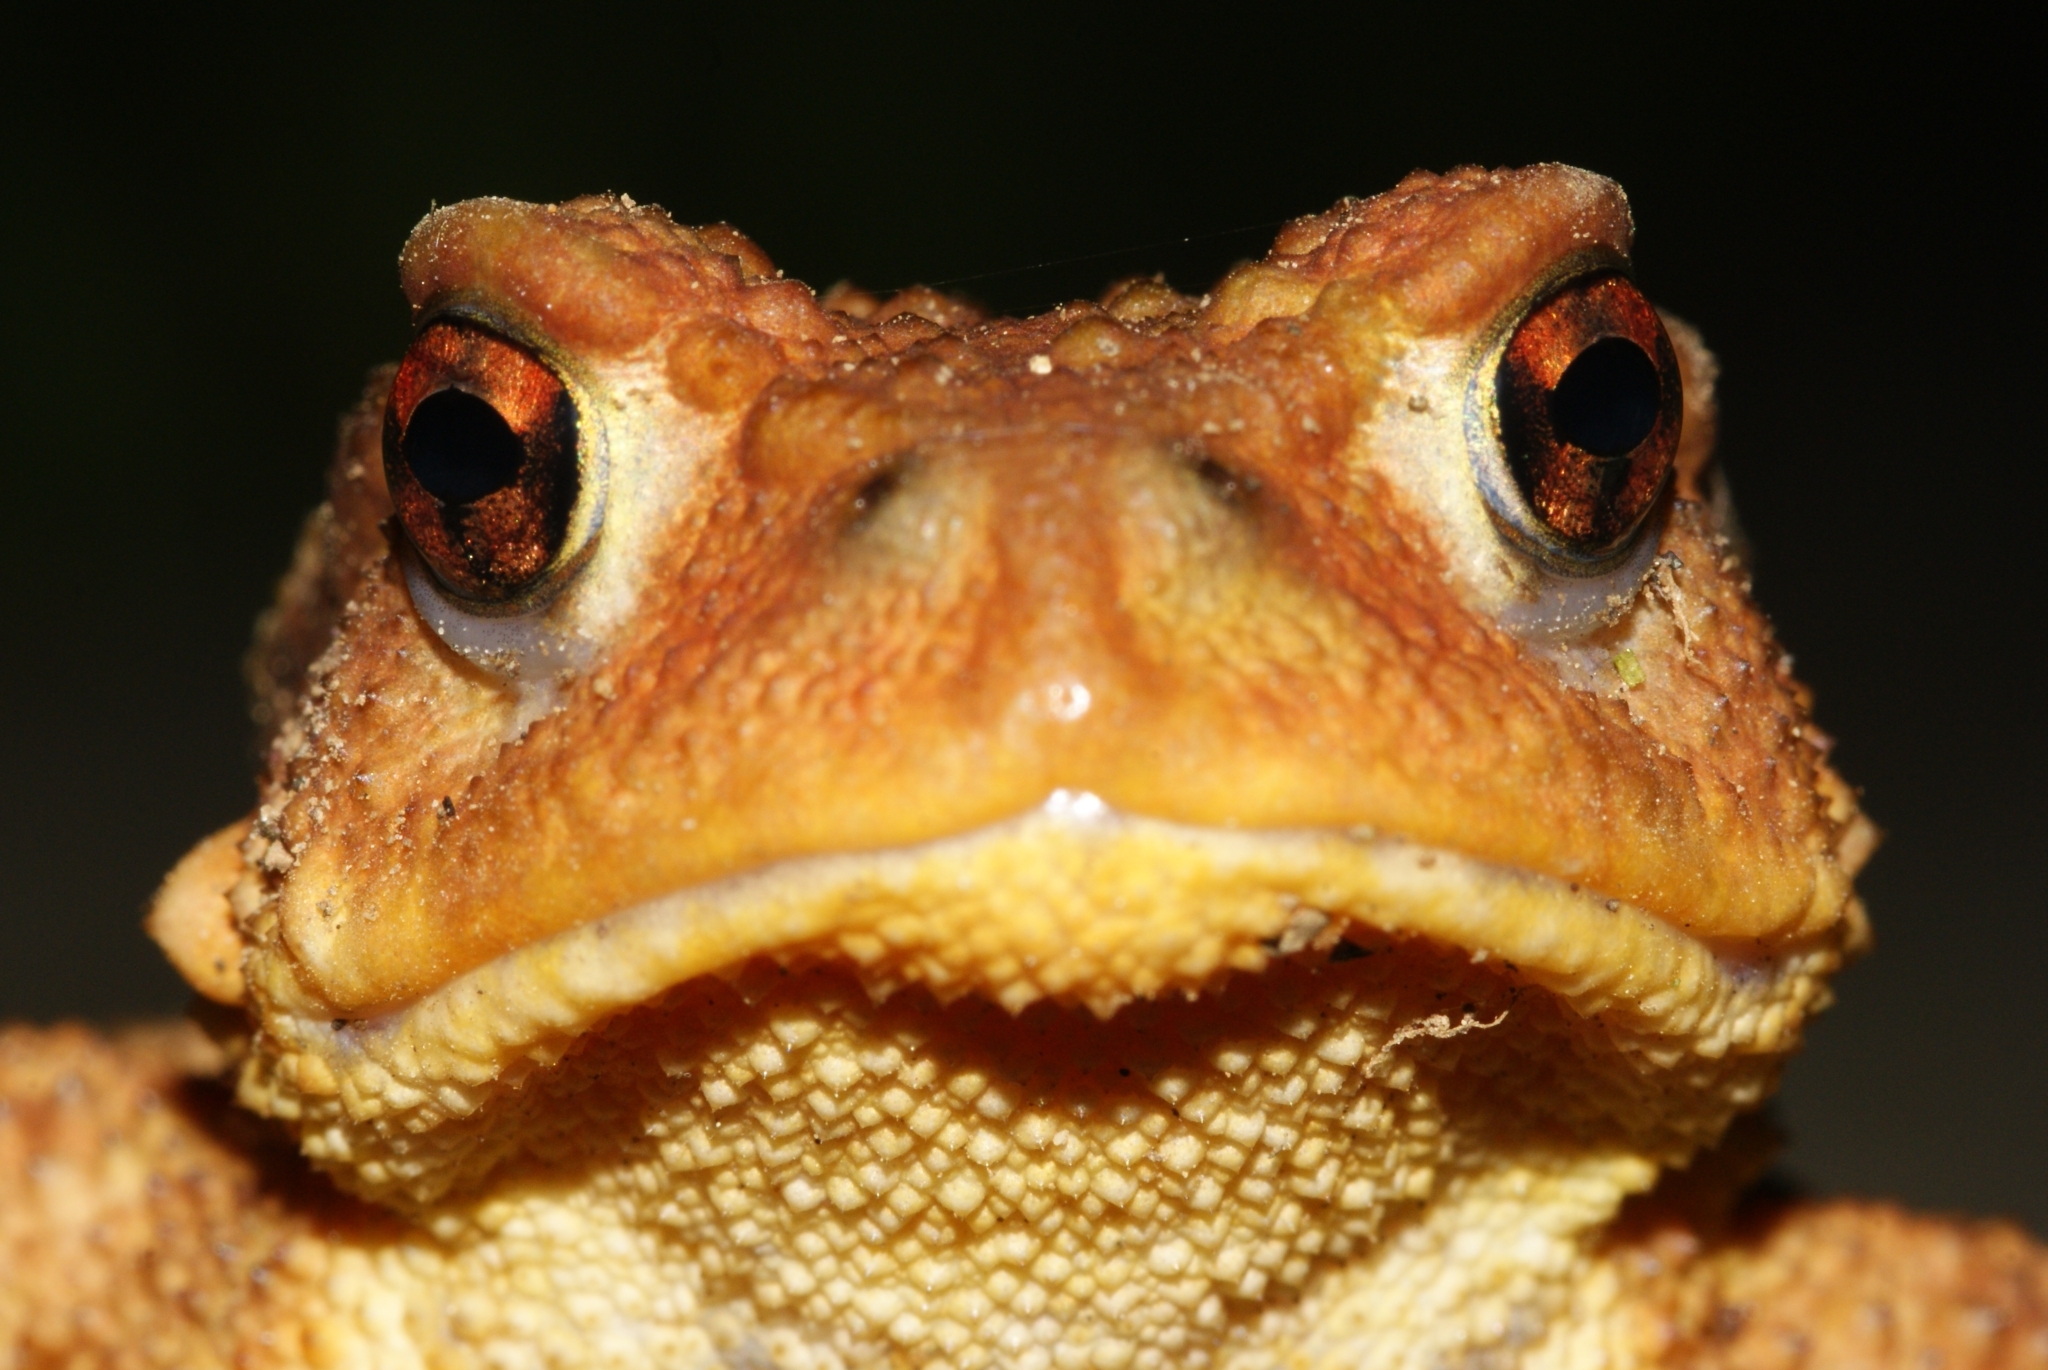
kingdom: Animalia
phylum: Chordata
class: Amphibia
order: Anura
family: Bufonidae
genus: Bufo
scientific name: Bufo spinosus
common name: Western common toad
